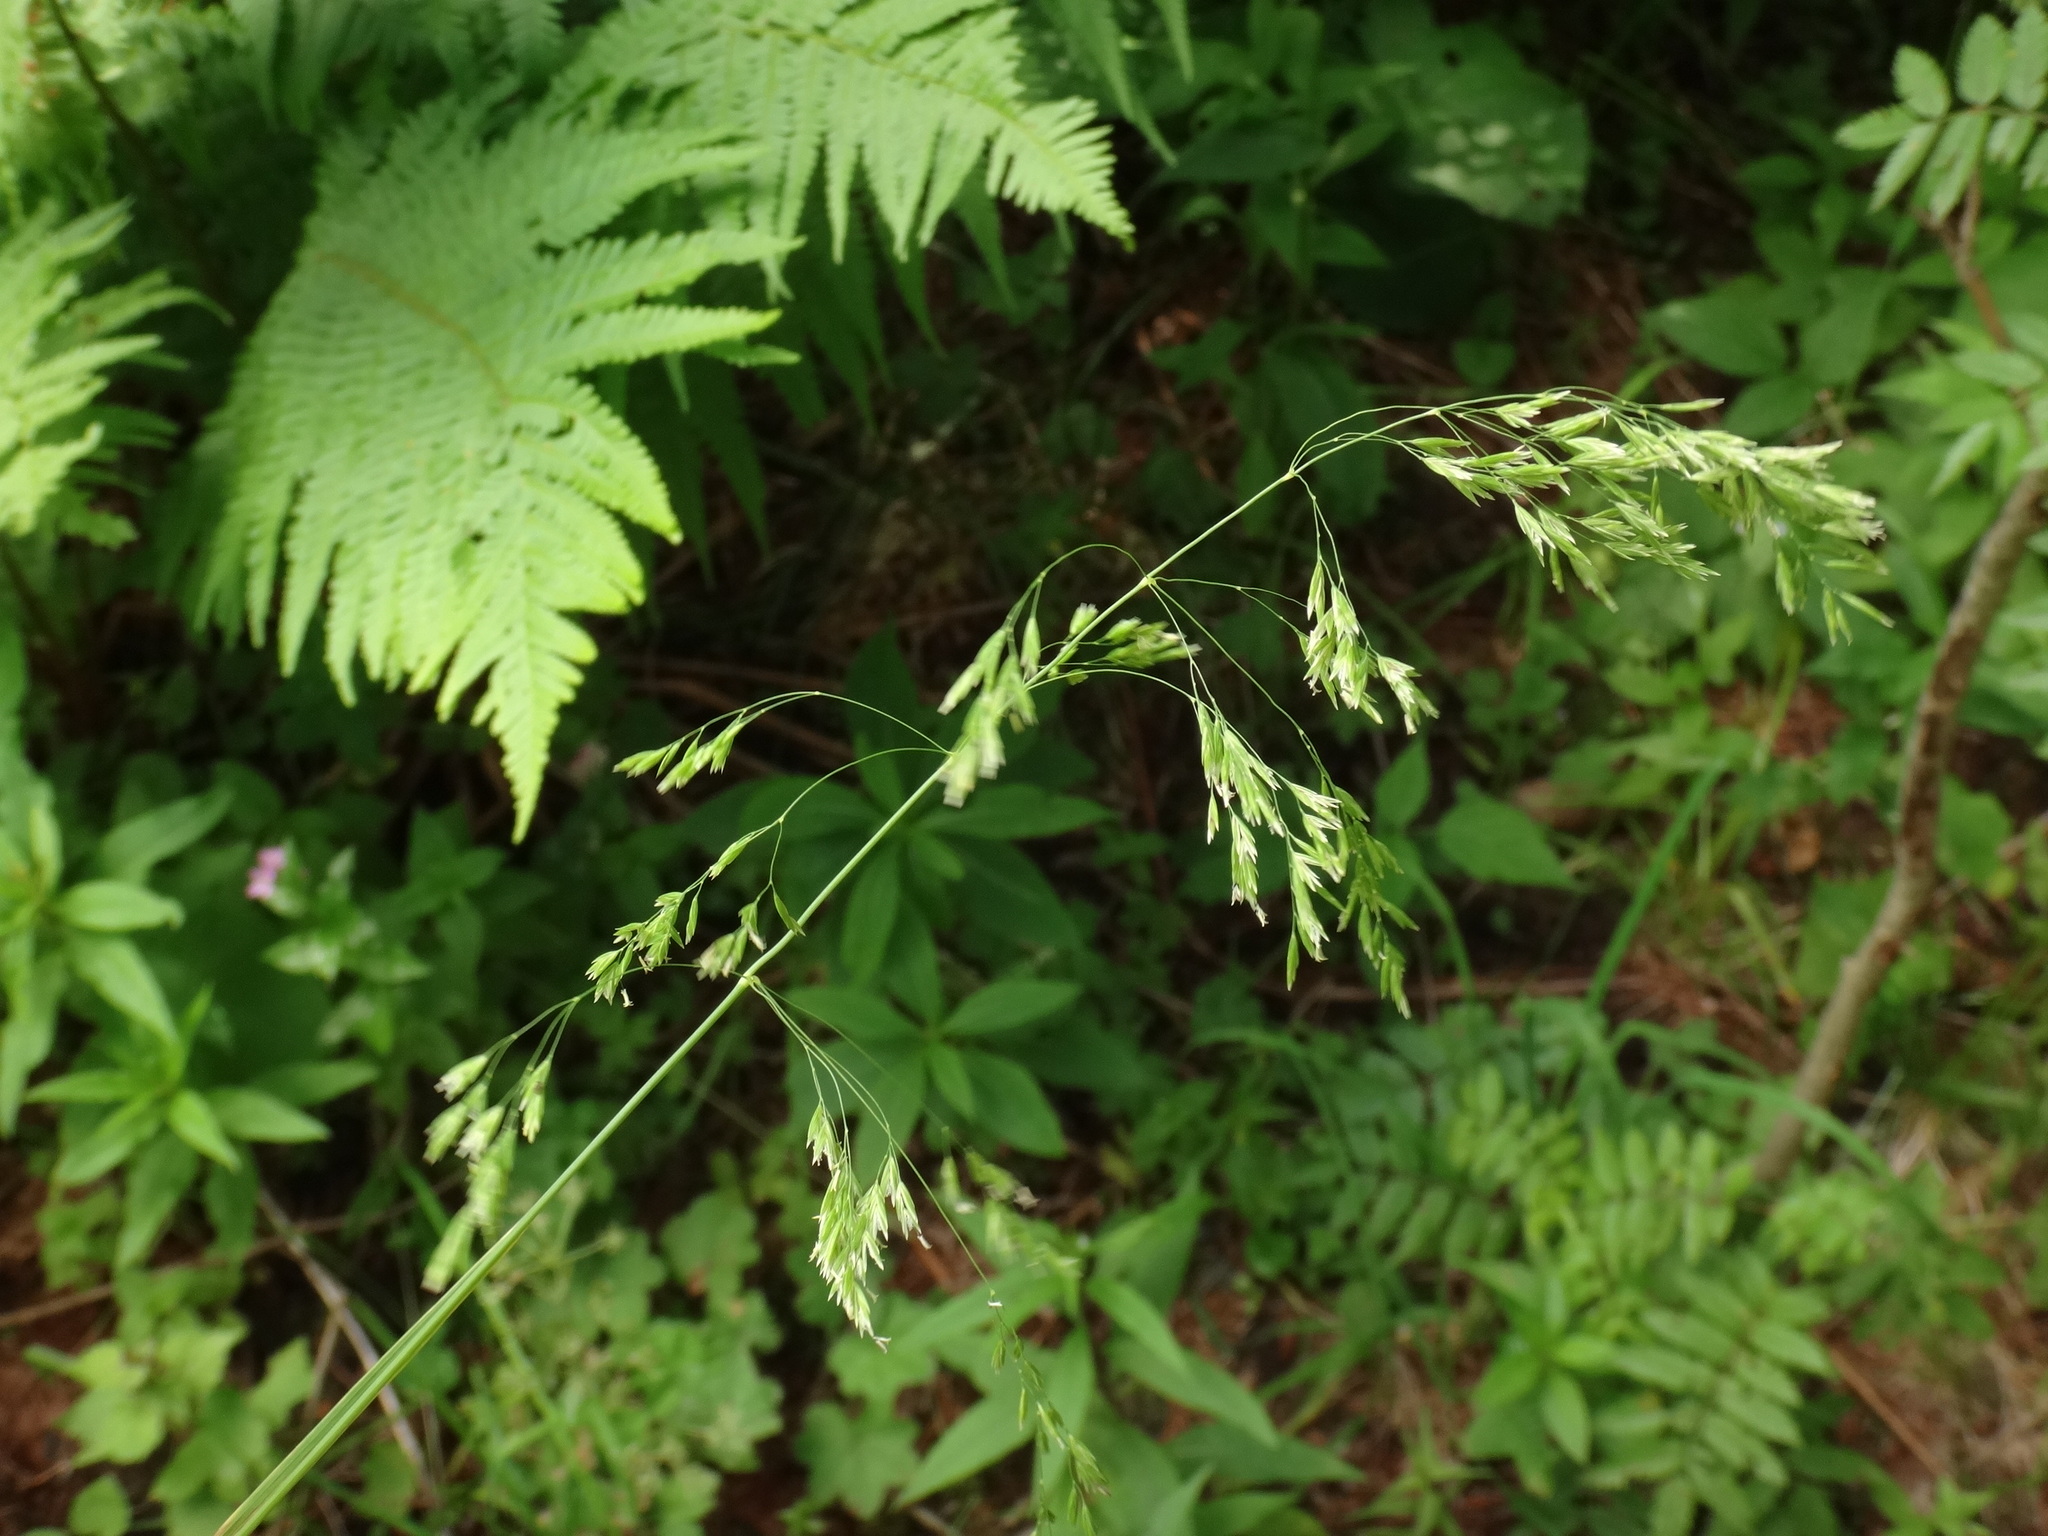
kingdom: Plantae
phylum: Tracheophyta
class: Liliopsida
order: Poales
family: Poaceae
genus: Poa
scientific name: Poa chaixii
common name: Broad-leaved meadow-grass
